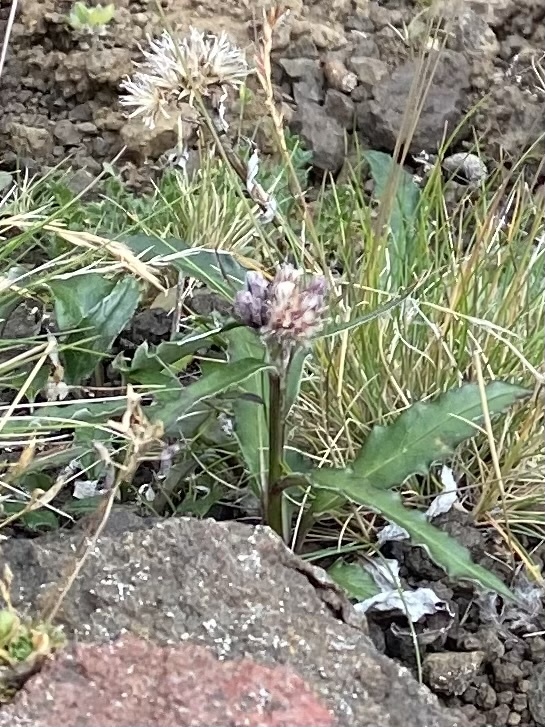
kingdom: Plantae
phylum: Tracheophyta
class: Magnoliopsida
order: Asterales
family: Asteraceae
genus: Saussurea
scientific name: Saussurea tilesii
